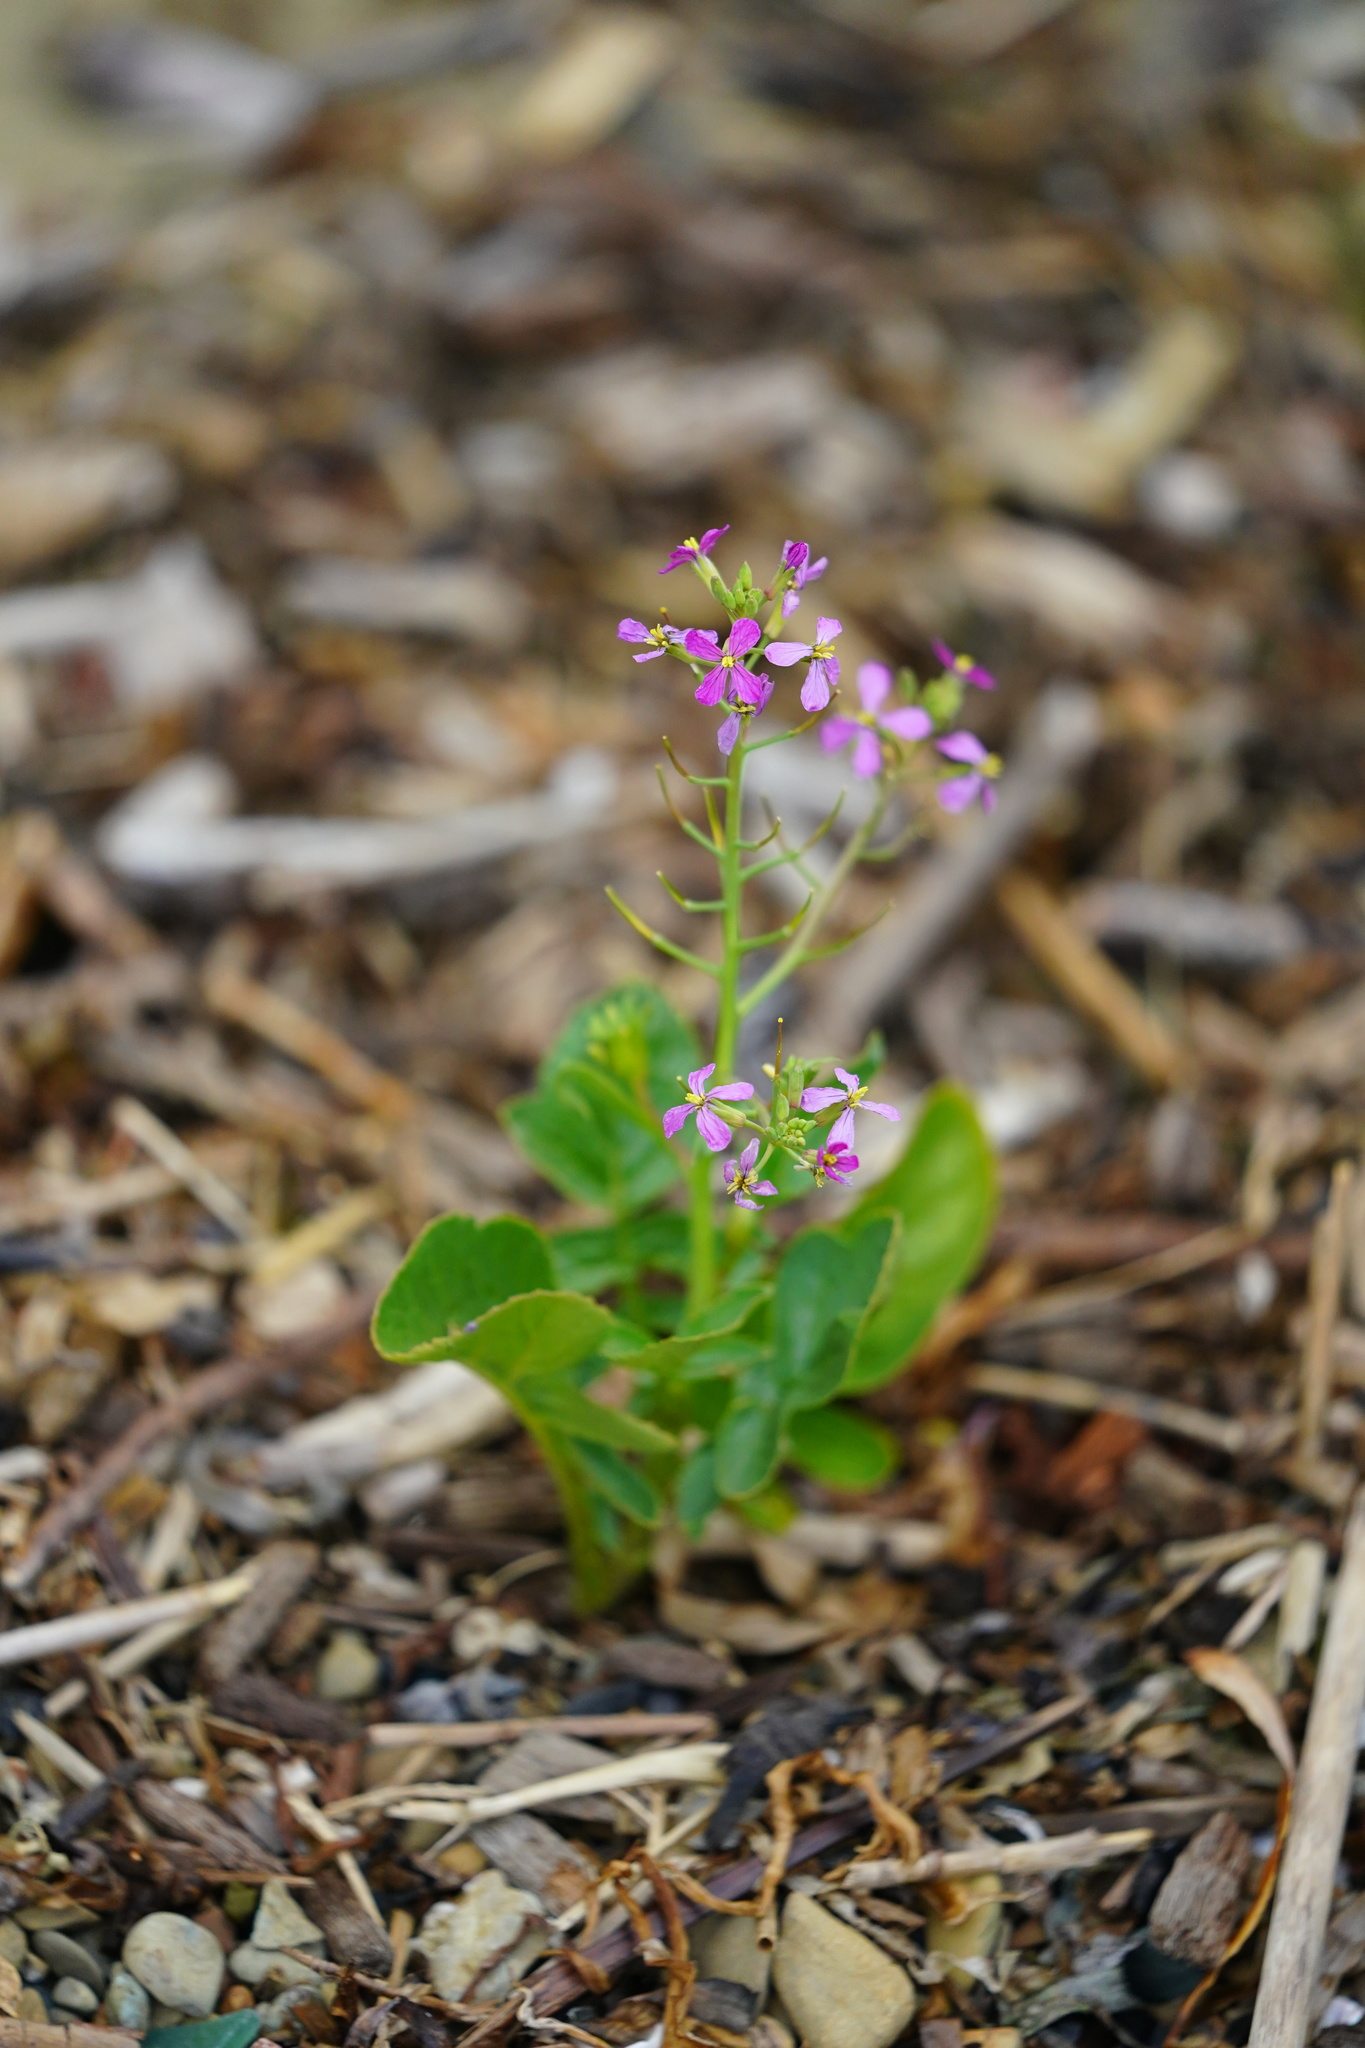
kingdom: Plantae
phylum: Tracheophyta
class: Magnoliopsida
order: Brassicales
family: Brassicaceae
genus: Raphanus
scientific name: Raphanus sativus
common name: Cultivated radish
